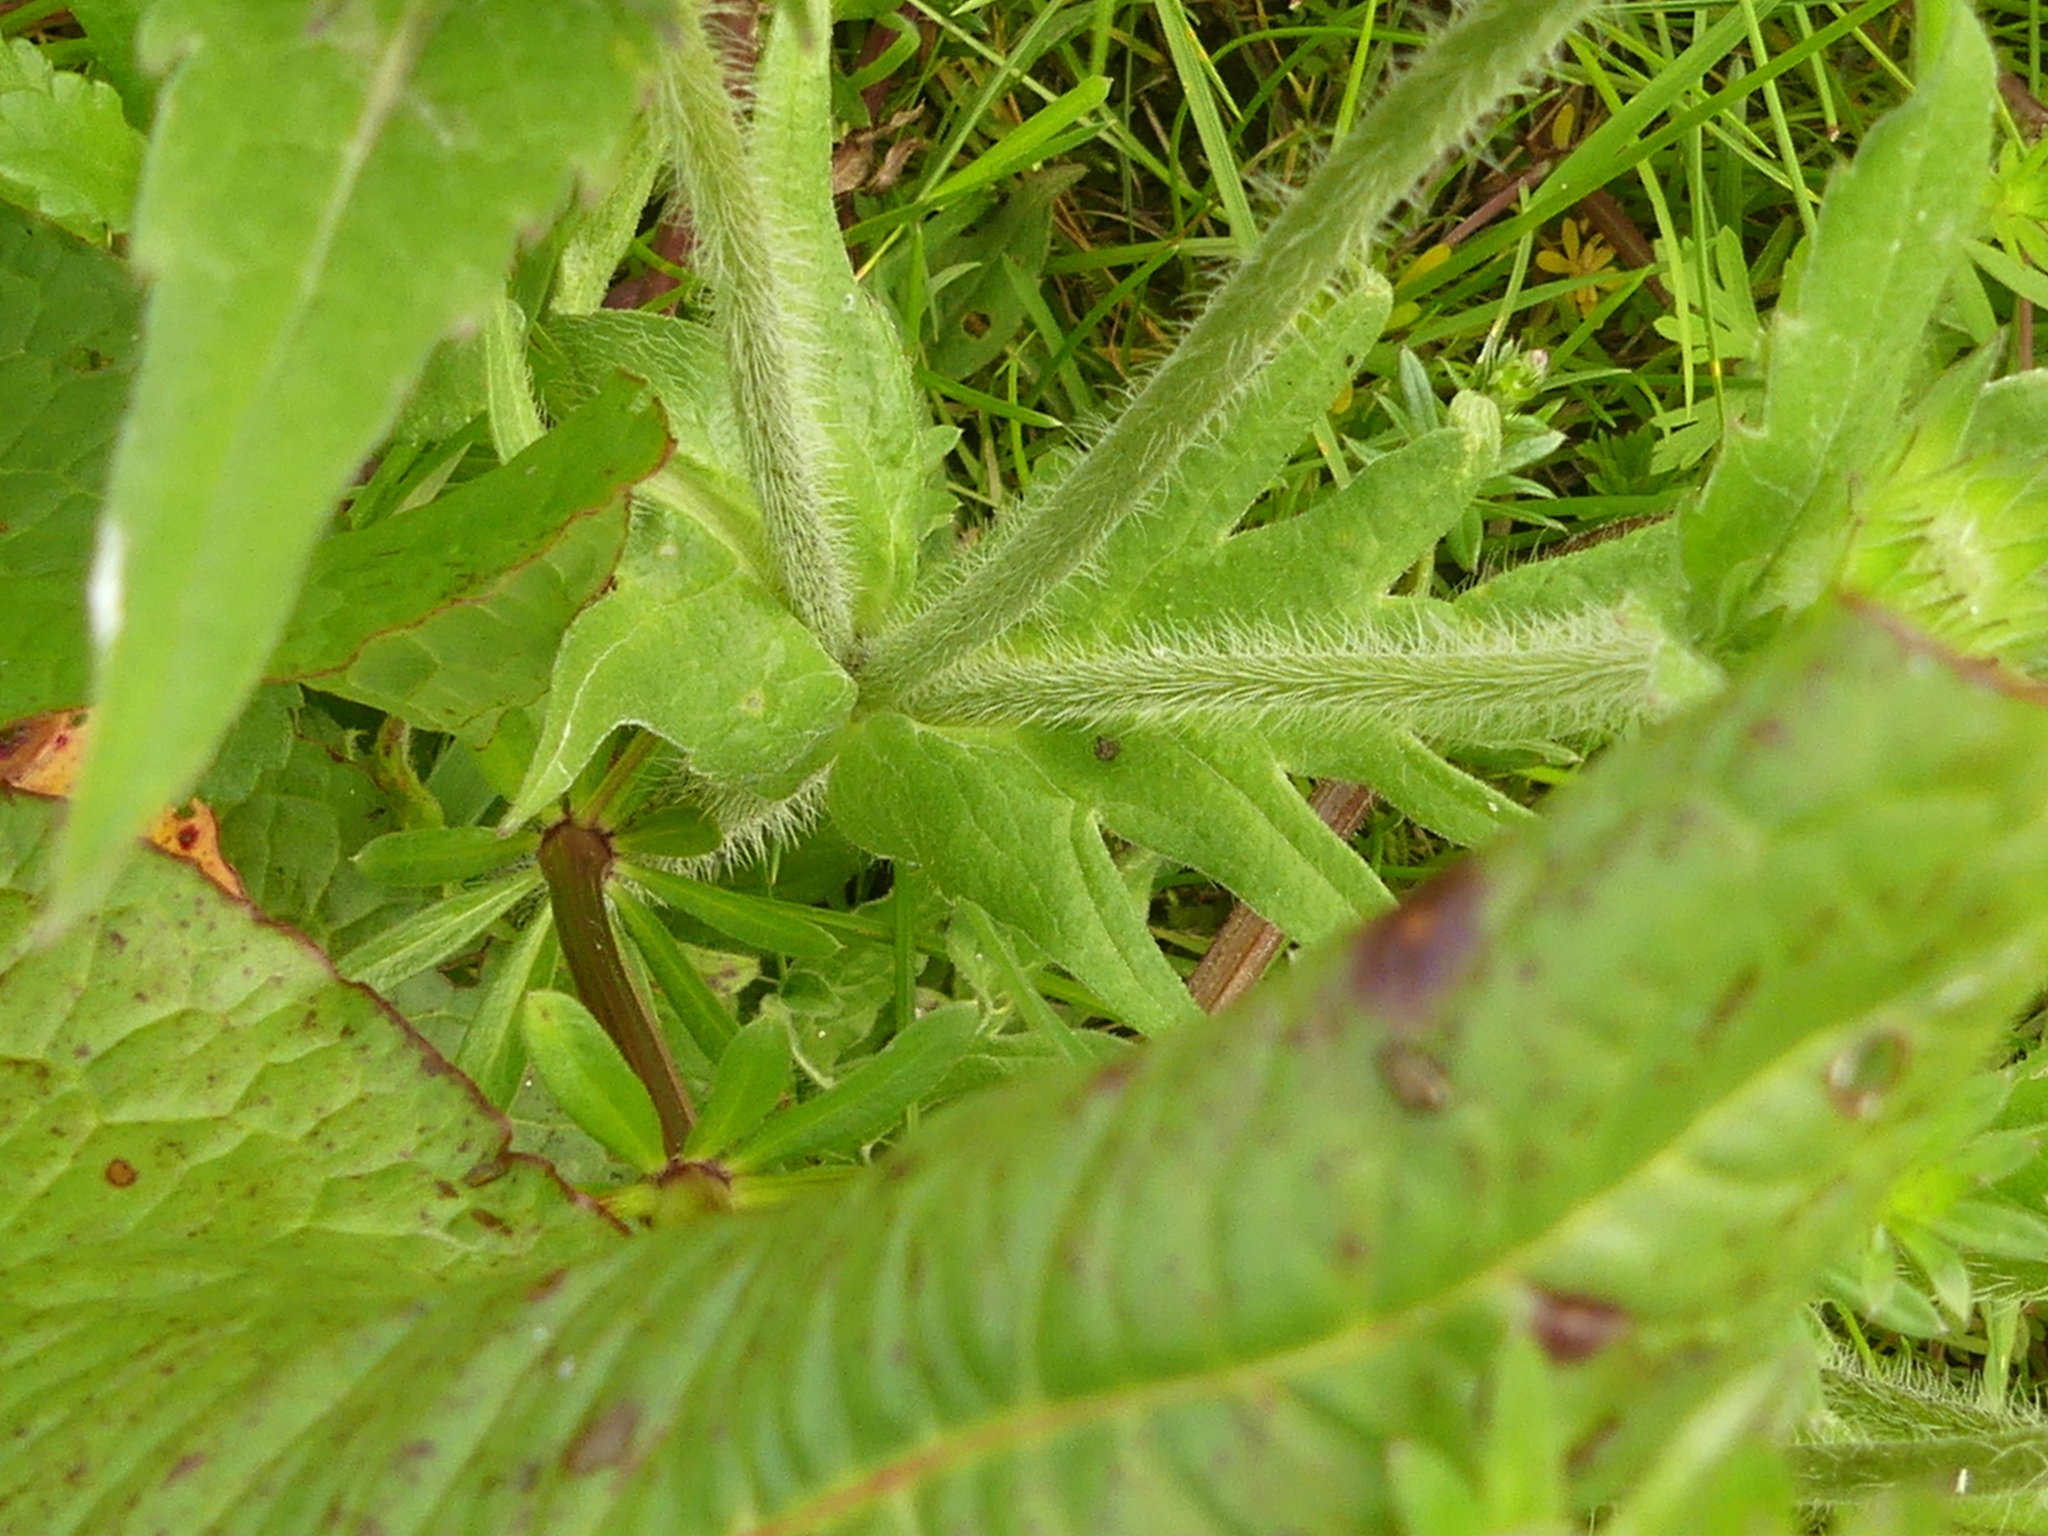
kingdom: Plantae
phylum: Tracheophyta
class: Magnoliopsida
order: Dipsacales
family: Caprifoliaceae
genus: Knautia
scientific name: Knautia arvensis
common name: Field scabiosa
